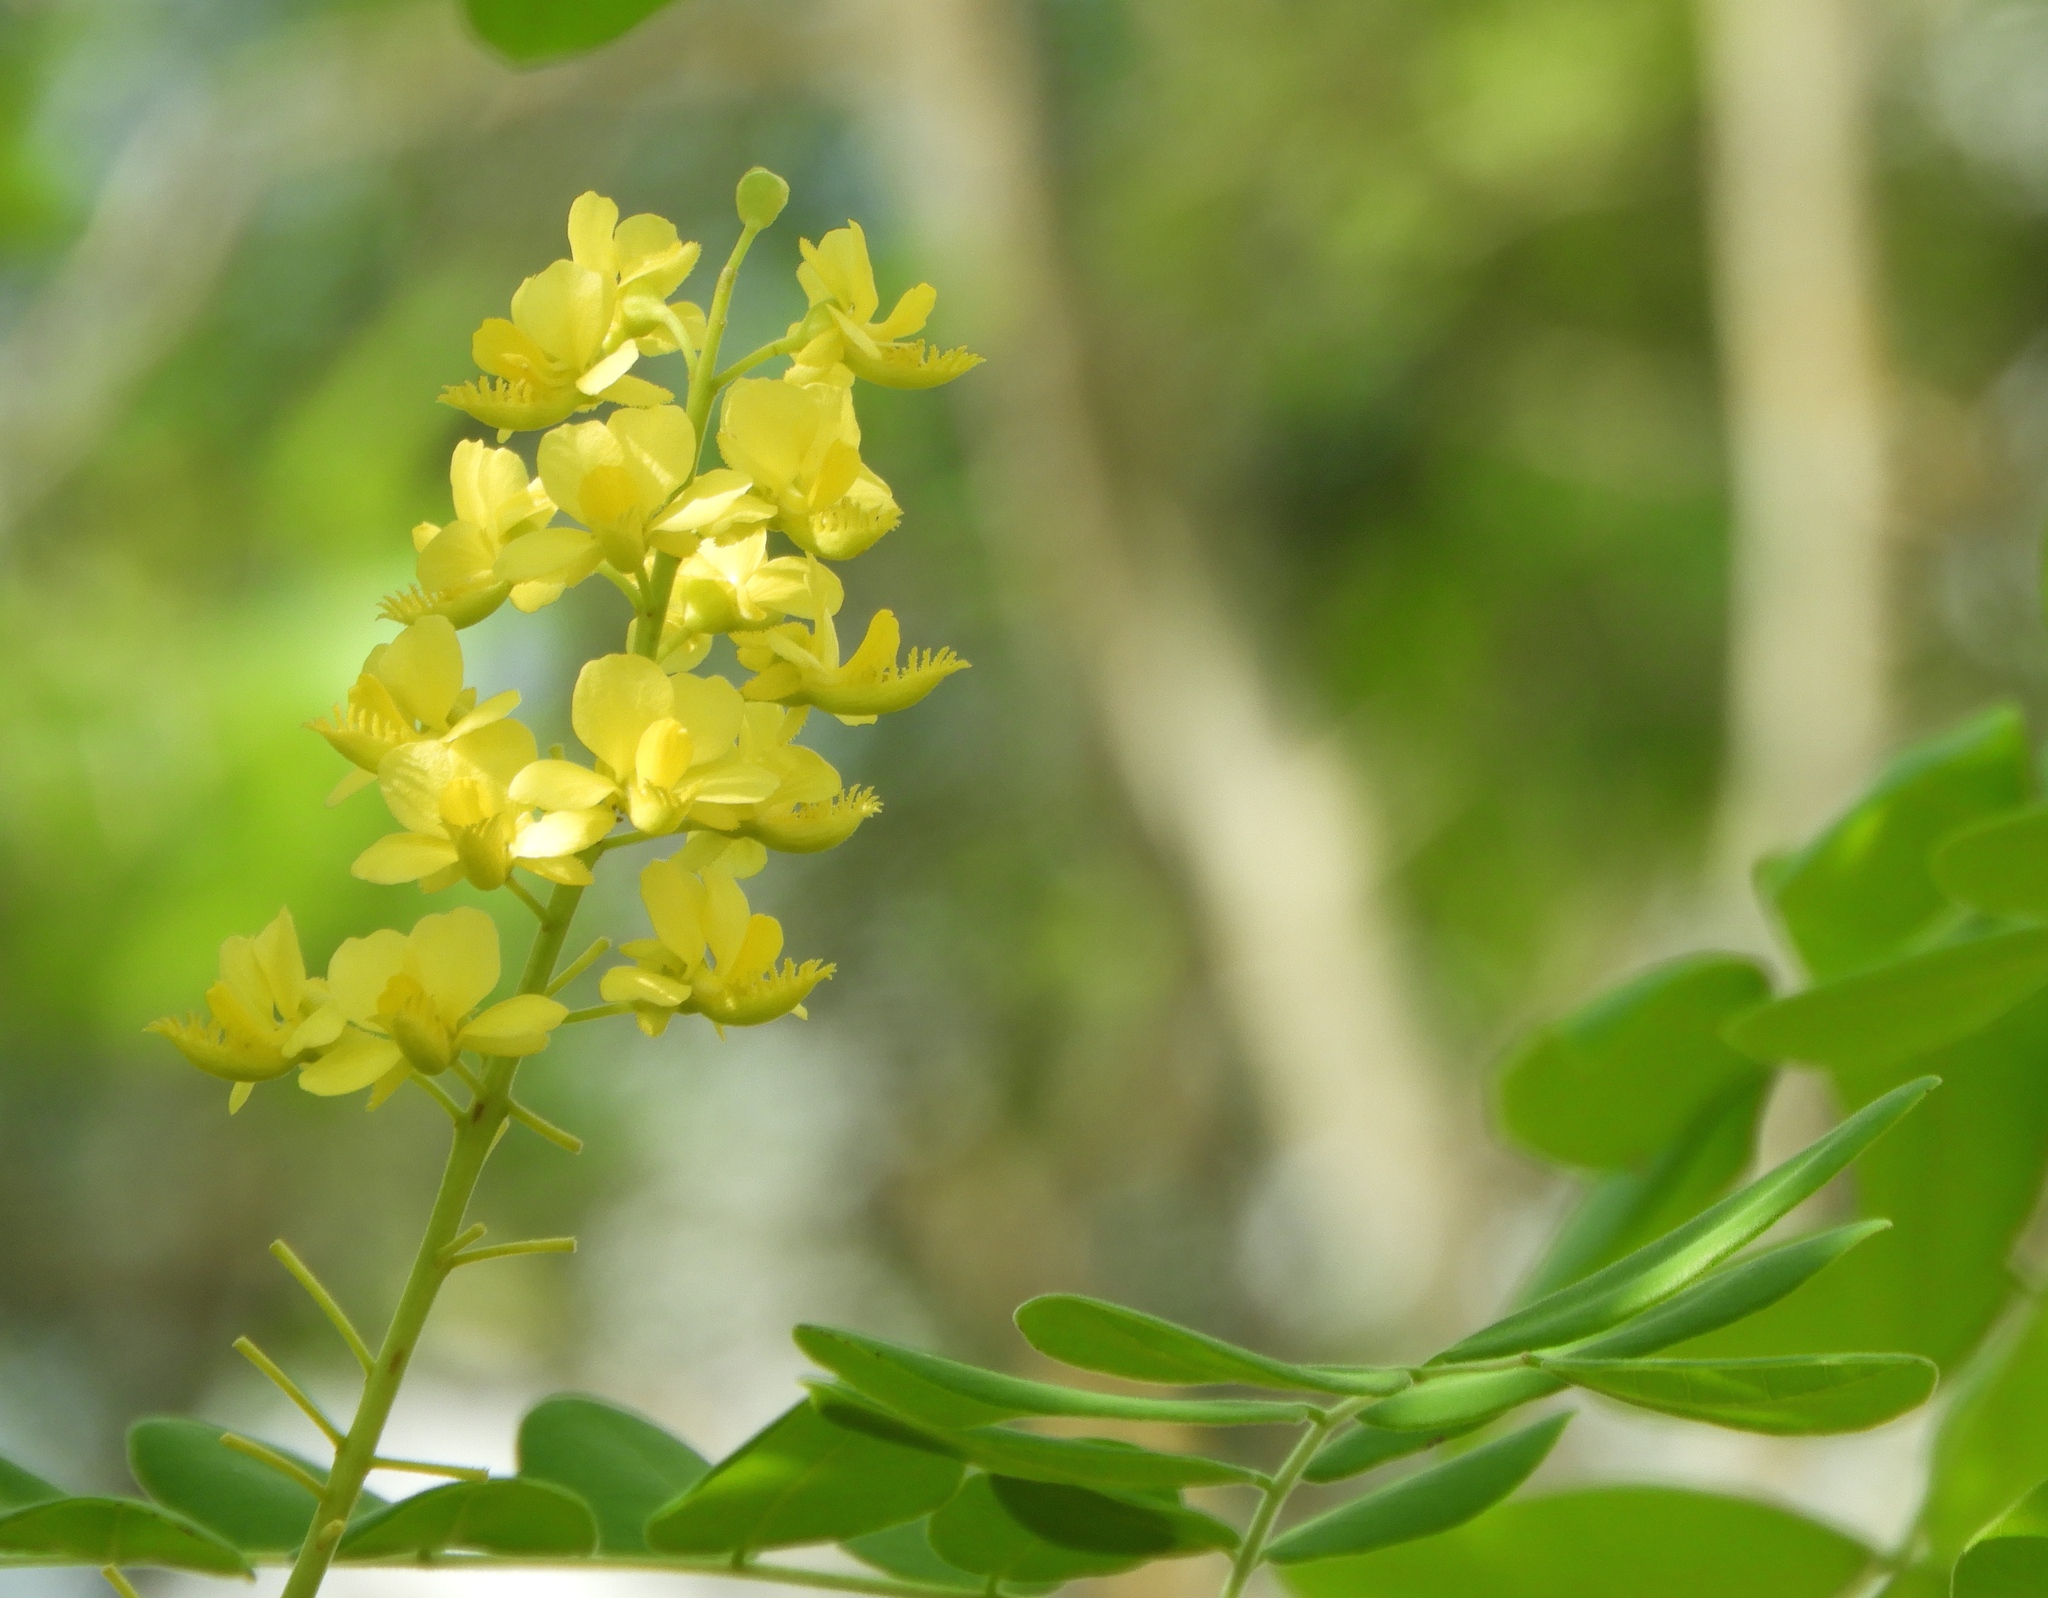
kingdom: Plantae
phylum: Tracheophyta
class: Magnoliopsida
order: Fabales
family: Fabaceae
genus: Coulteria
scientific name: Coulteria platyloba
